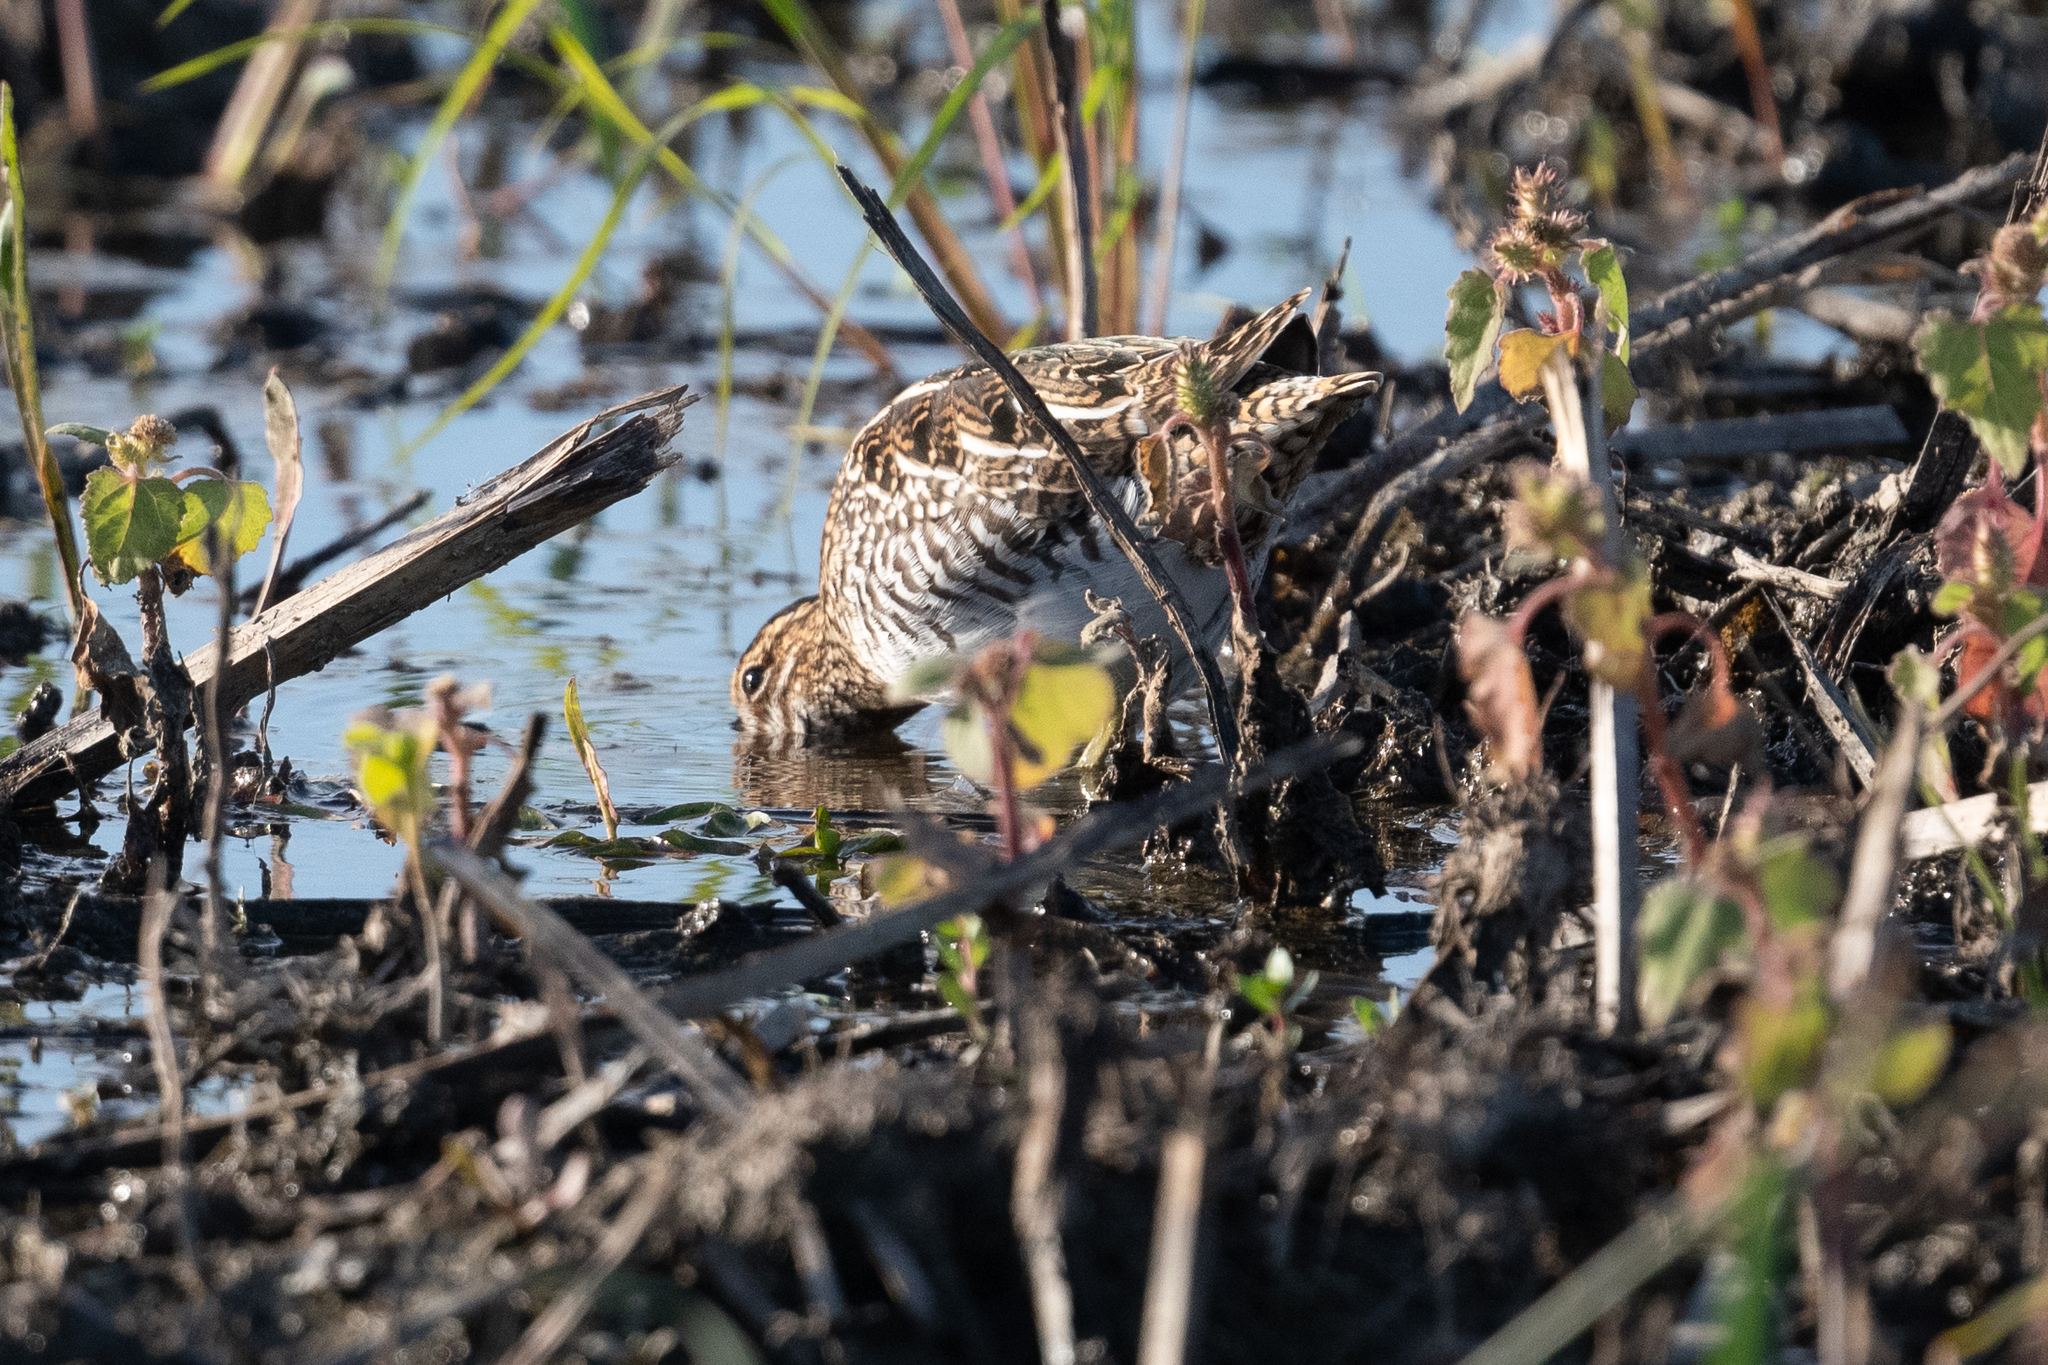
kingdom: Animalia
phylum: Chordata
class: Aves
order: Charadriiformes
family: Scolopacidae
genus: Gallinago
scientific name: Gallinago delicata
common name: Wilson's snipe
